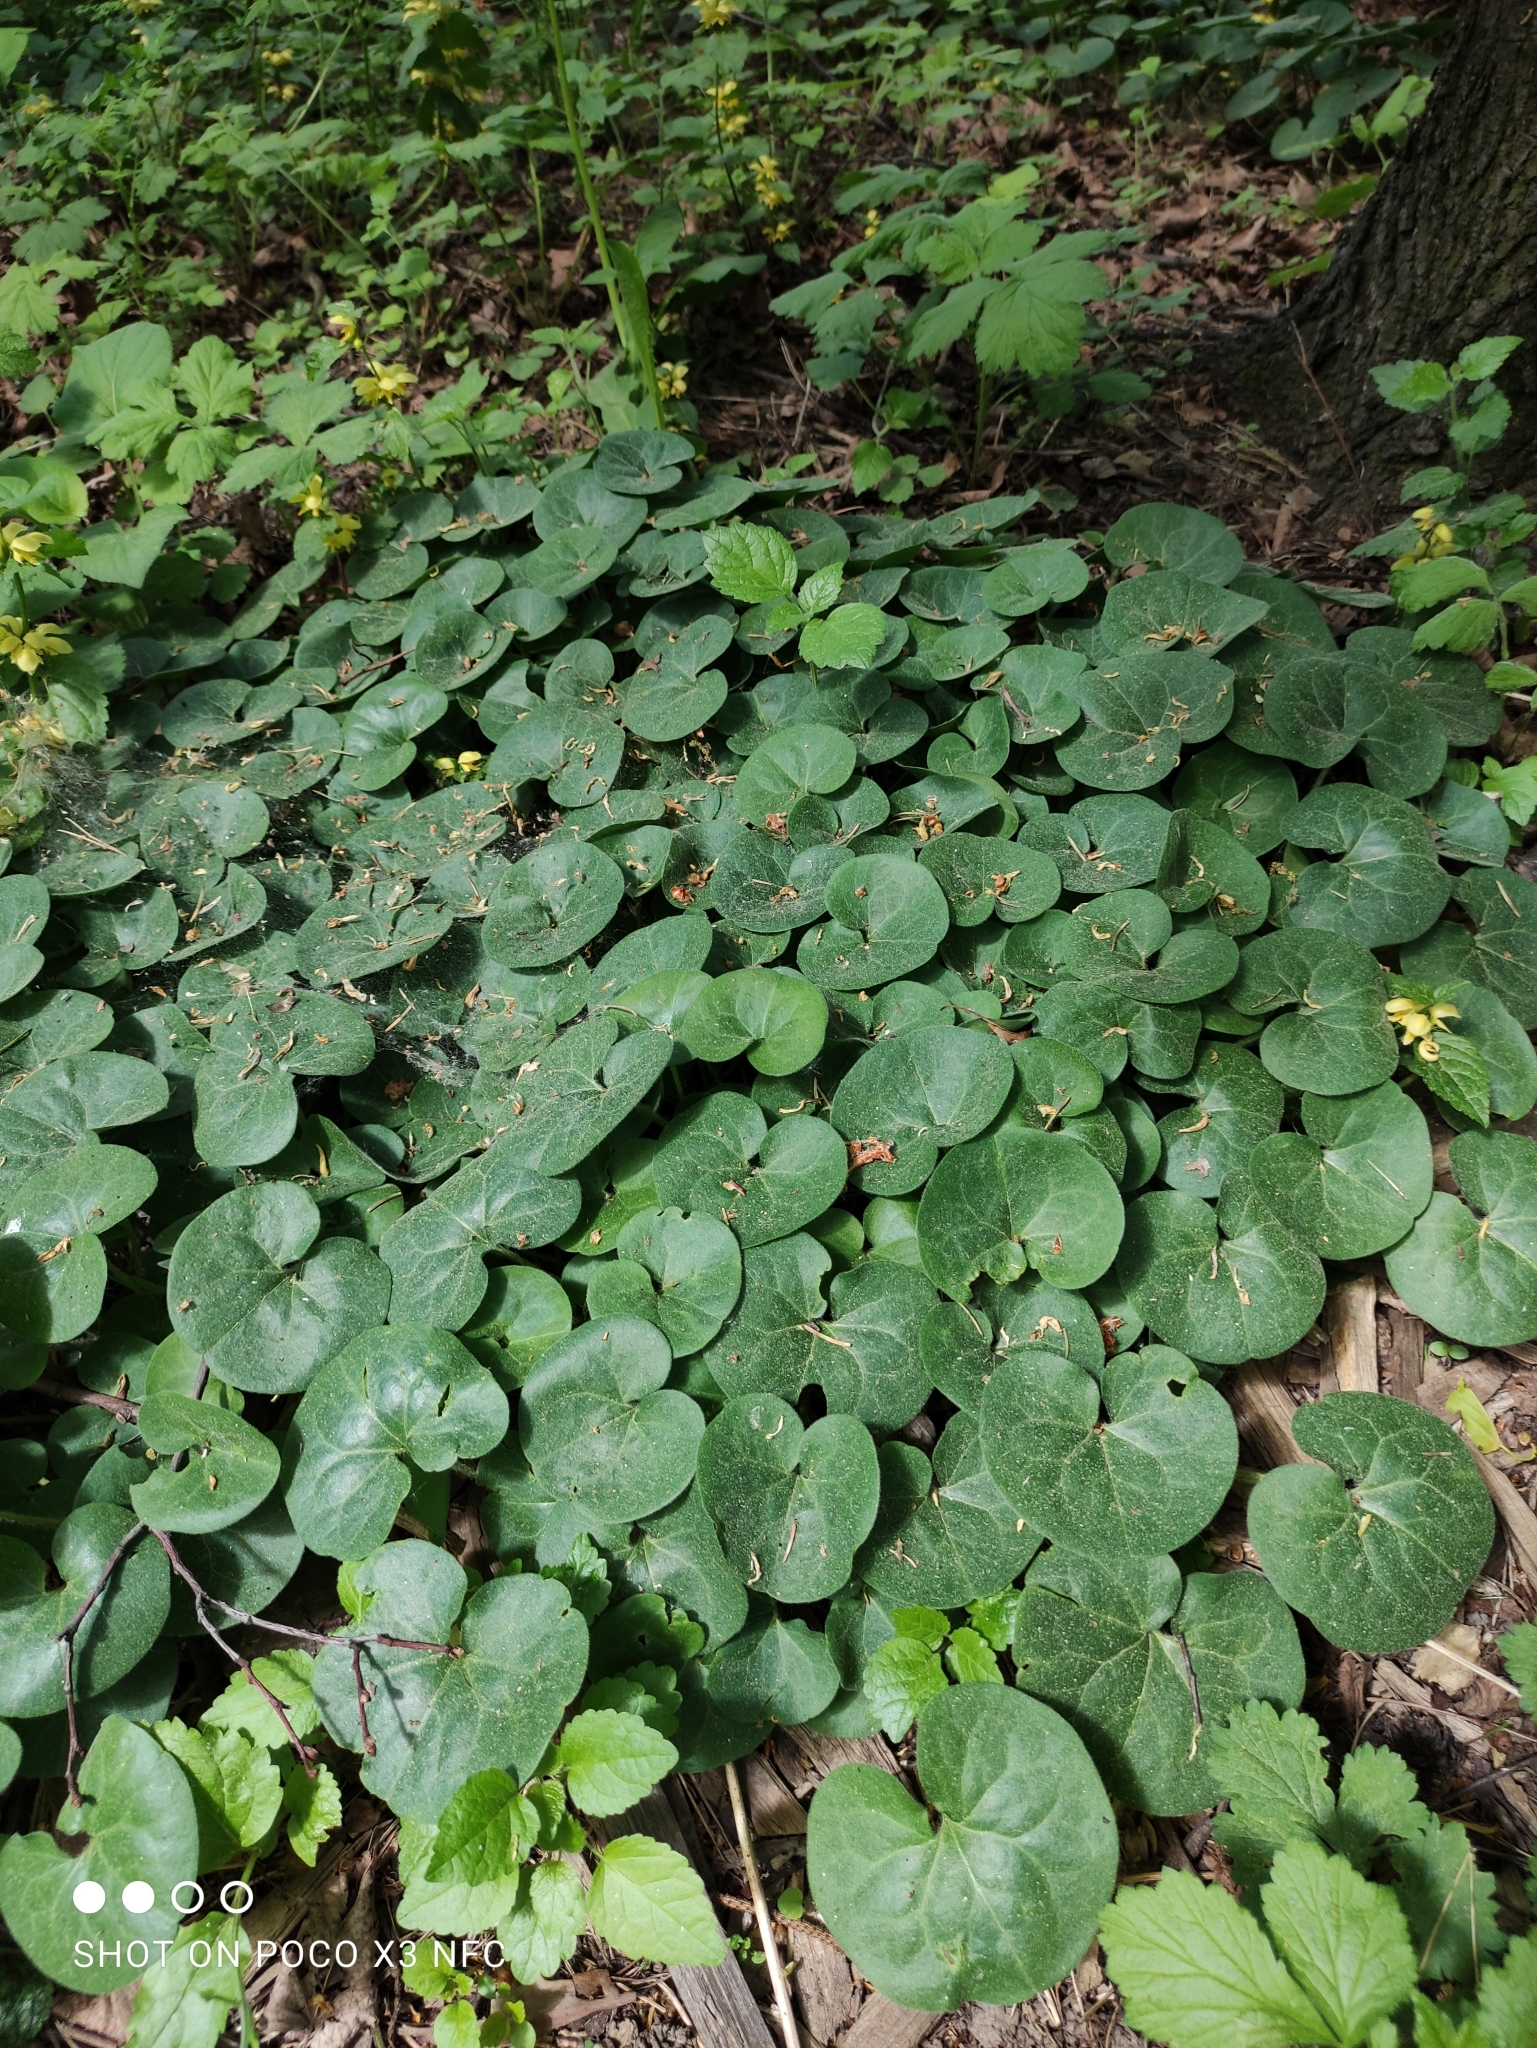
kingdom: Plantae
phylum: Tracheophyta
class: Magnoliopsida
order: Piperales
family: Aristolochiaceae
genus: Asarum
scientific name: Asarum europaeum
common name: Asarabacca
